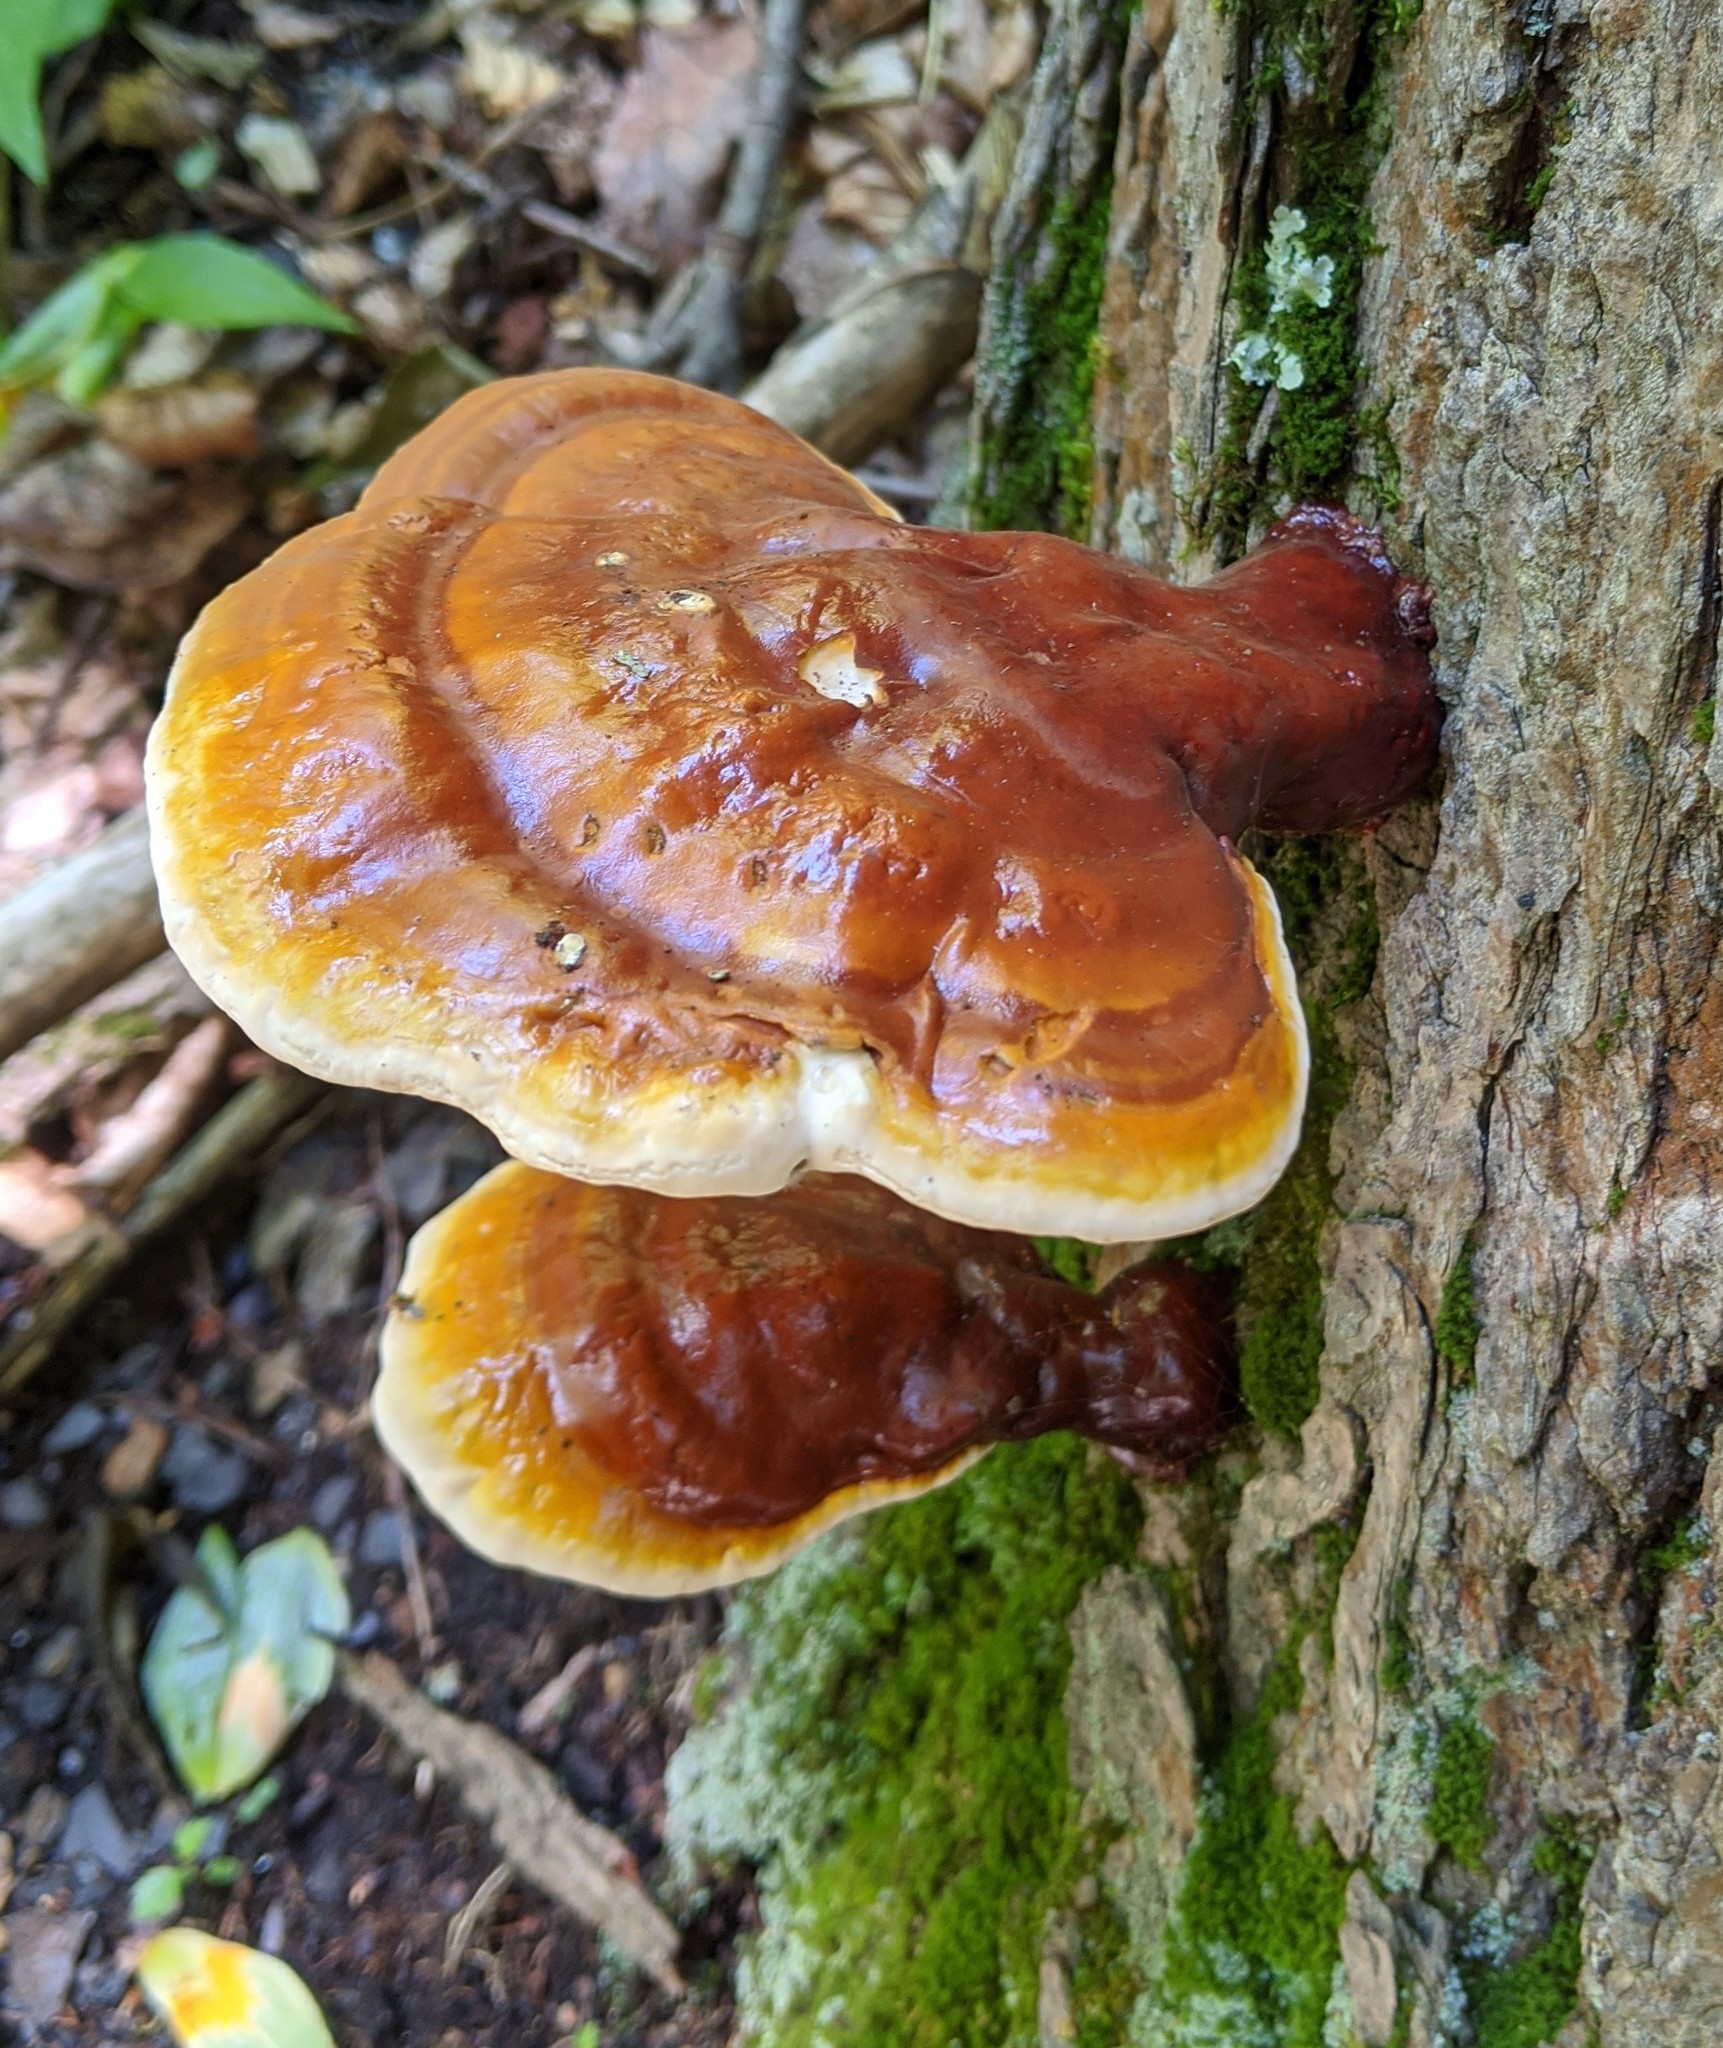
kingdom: Fungi
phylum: Basidiomycota
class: Agaricomycetes
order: Polyporales
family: Polyporaceae
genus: Ganoderma
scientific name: Ganoderma tsugae
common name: Hemlock varnish shelf
